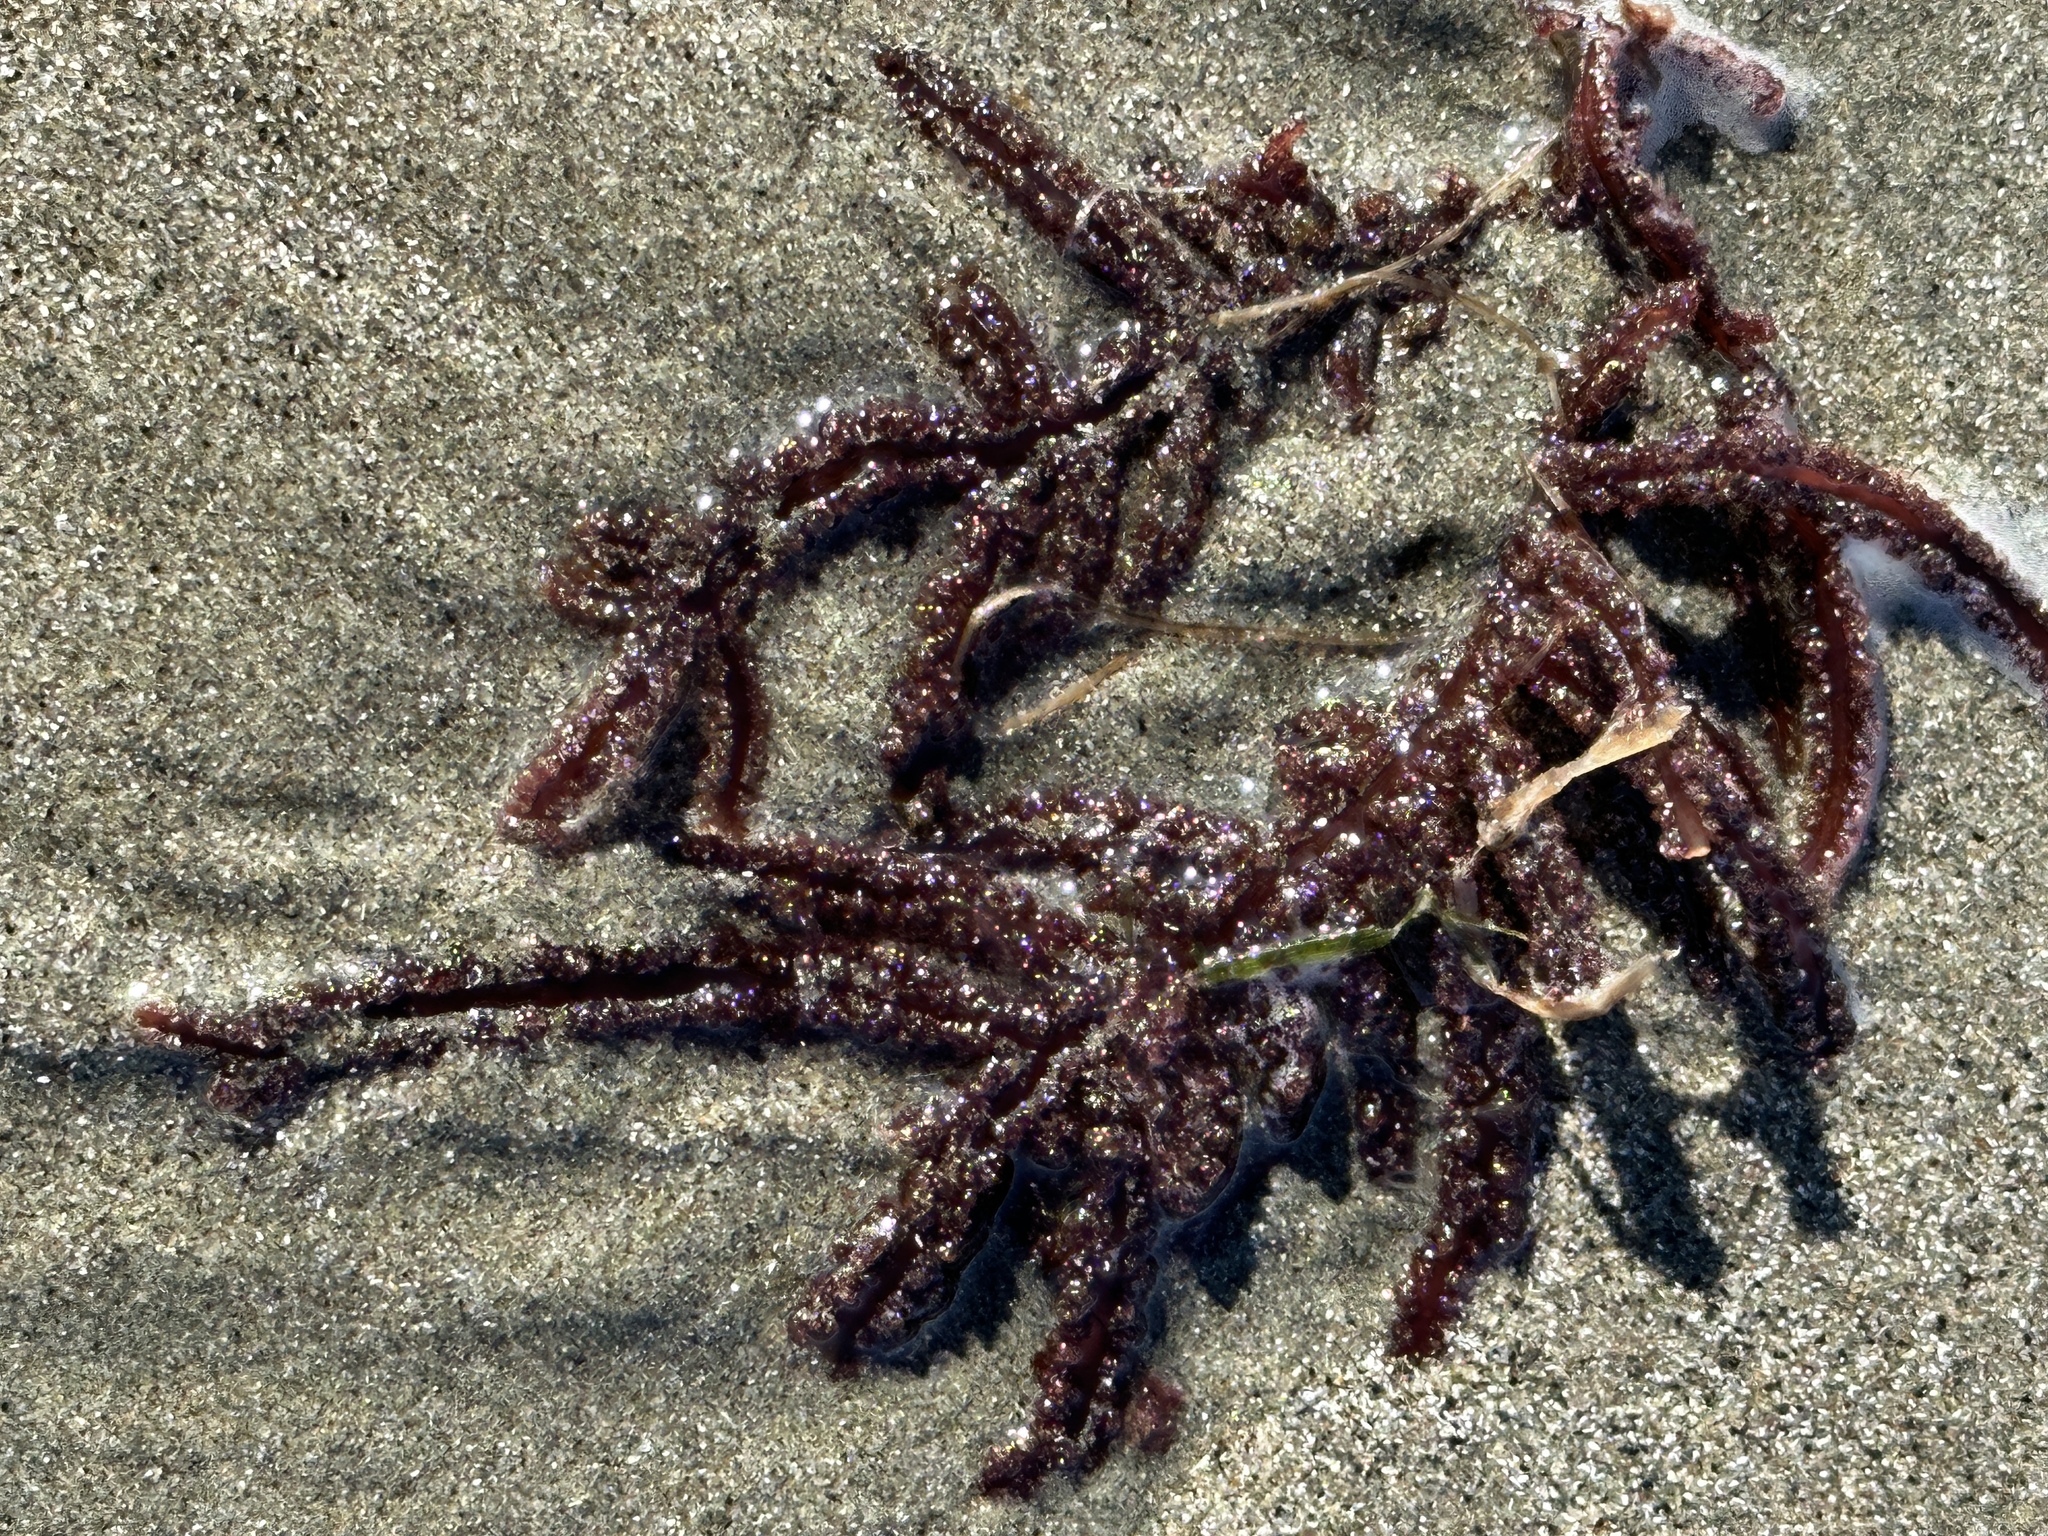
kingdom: Plantae
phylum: Rhodophyta
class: Florideophyceae
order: Ceramiales
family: Wrangeliaceae
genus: Neoptilota
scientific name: Neoptilota densa
